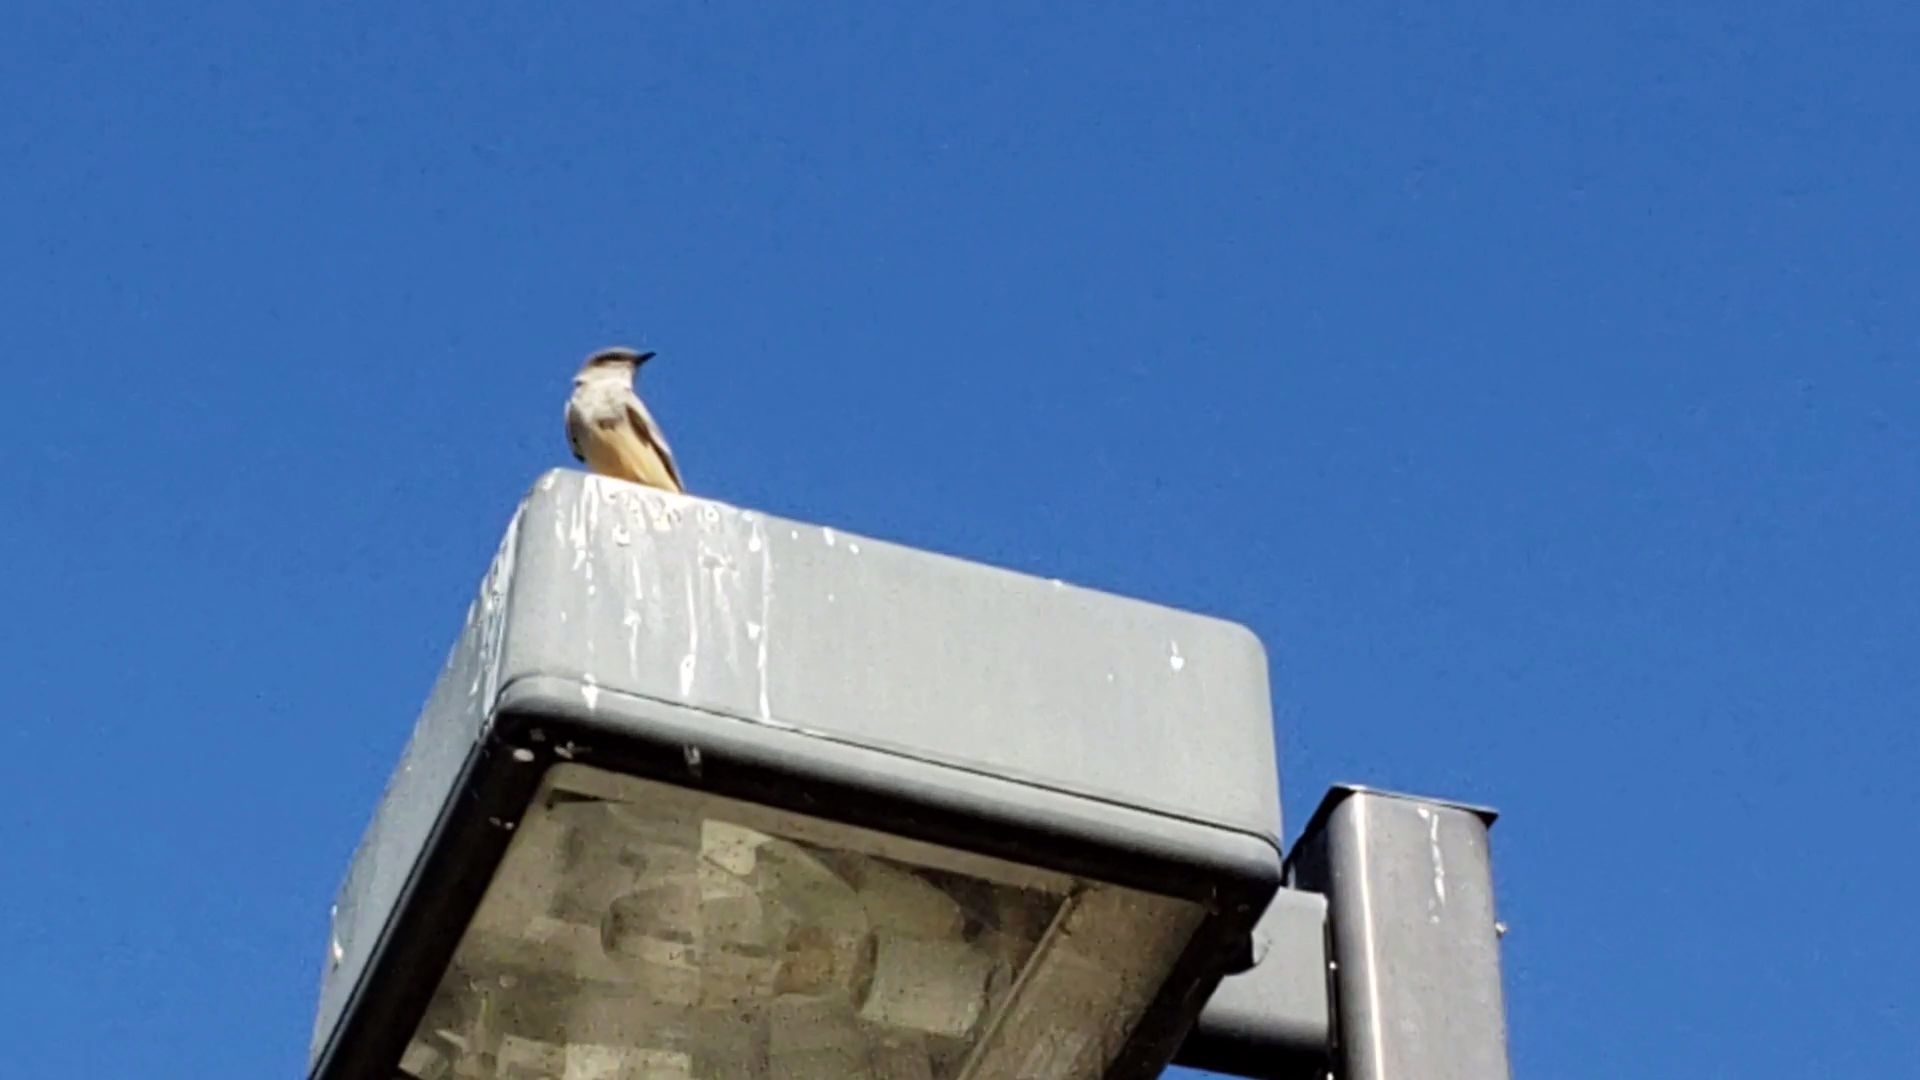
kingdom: Animalia
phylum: Chordata
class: Aves
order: Passeriformes
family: Tyrannidae
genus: Tyrannus
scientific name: Tyrannus vociferans
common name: Cassin's kingbird
